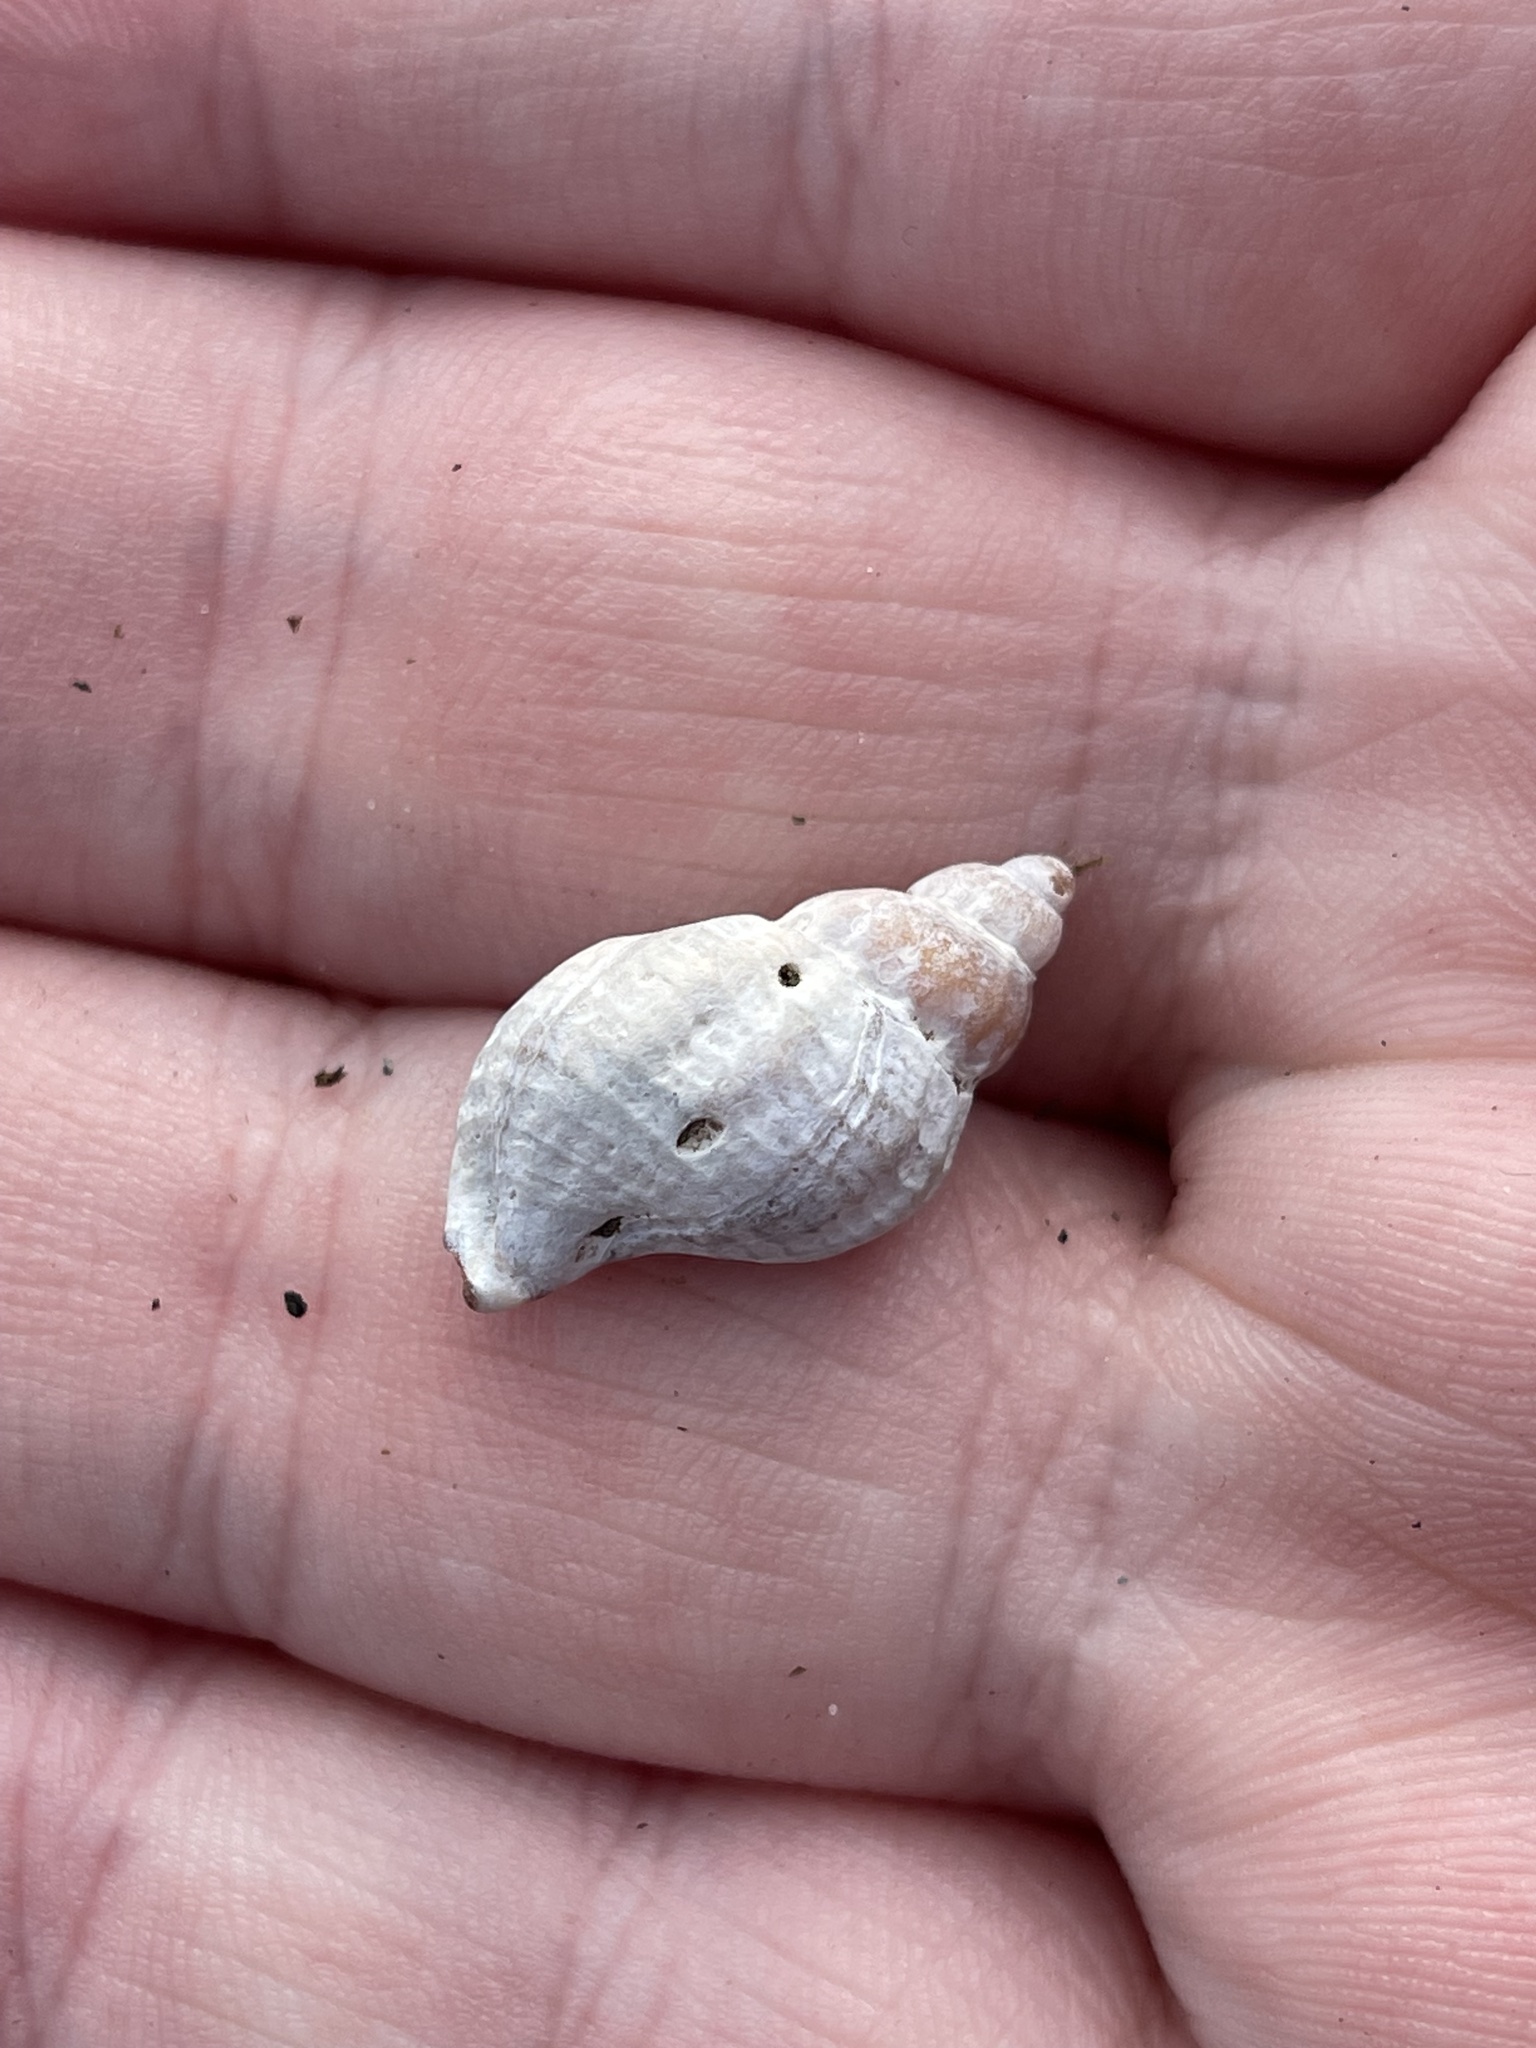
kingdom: Animalia
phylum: Mollusca
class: Gastropoda
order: Neogastropoda
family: Muricidae
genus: Urosalpinx
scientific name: Urosalpinx cinerea
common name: American sting winkle
